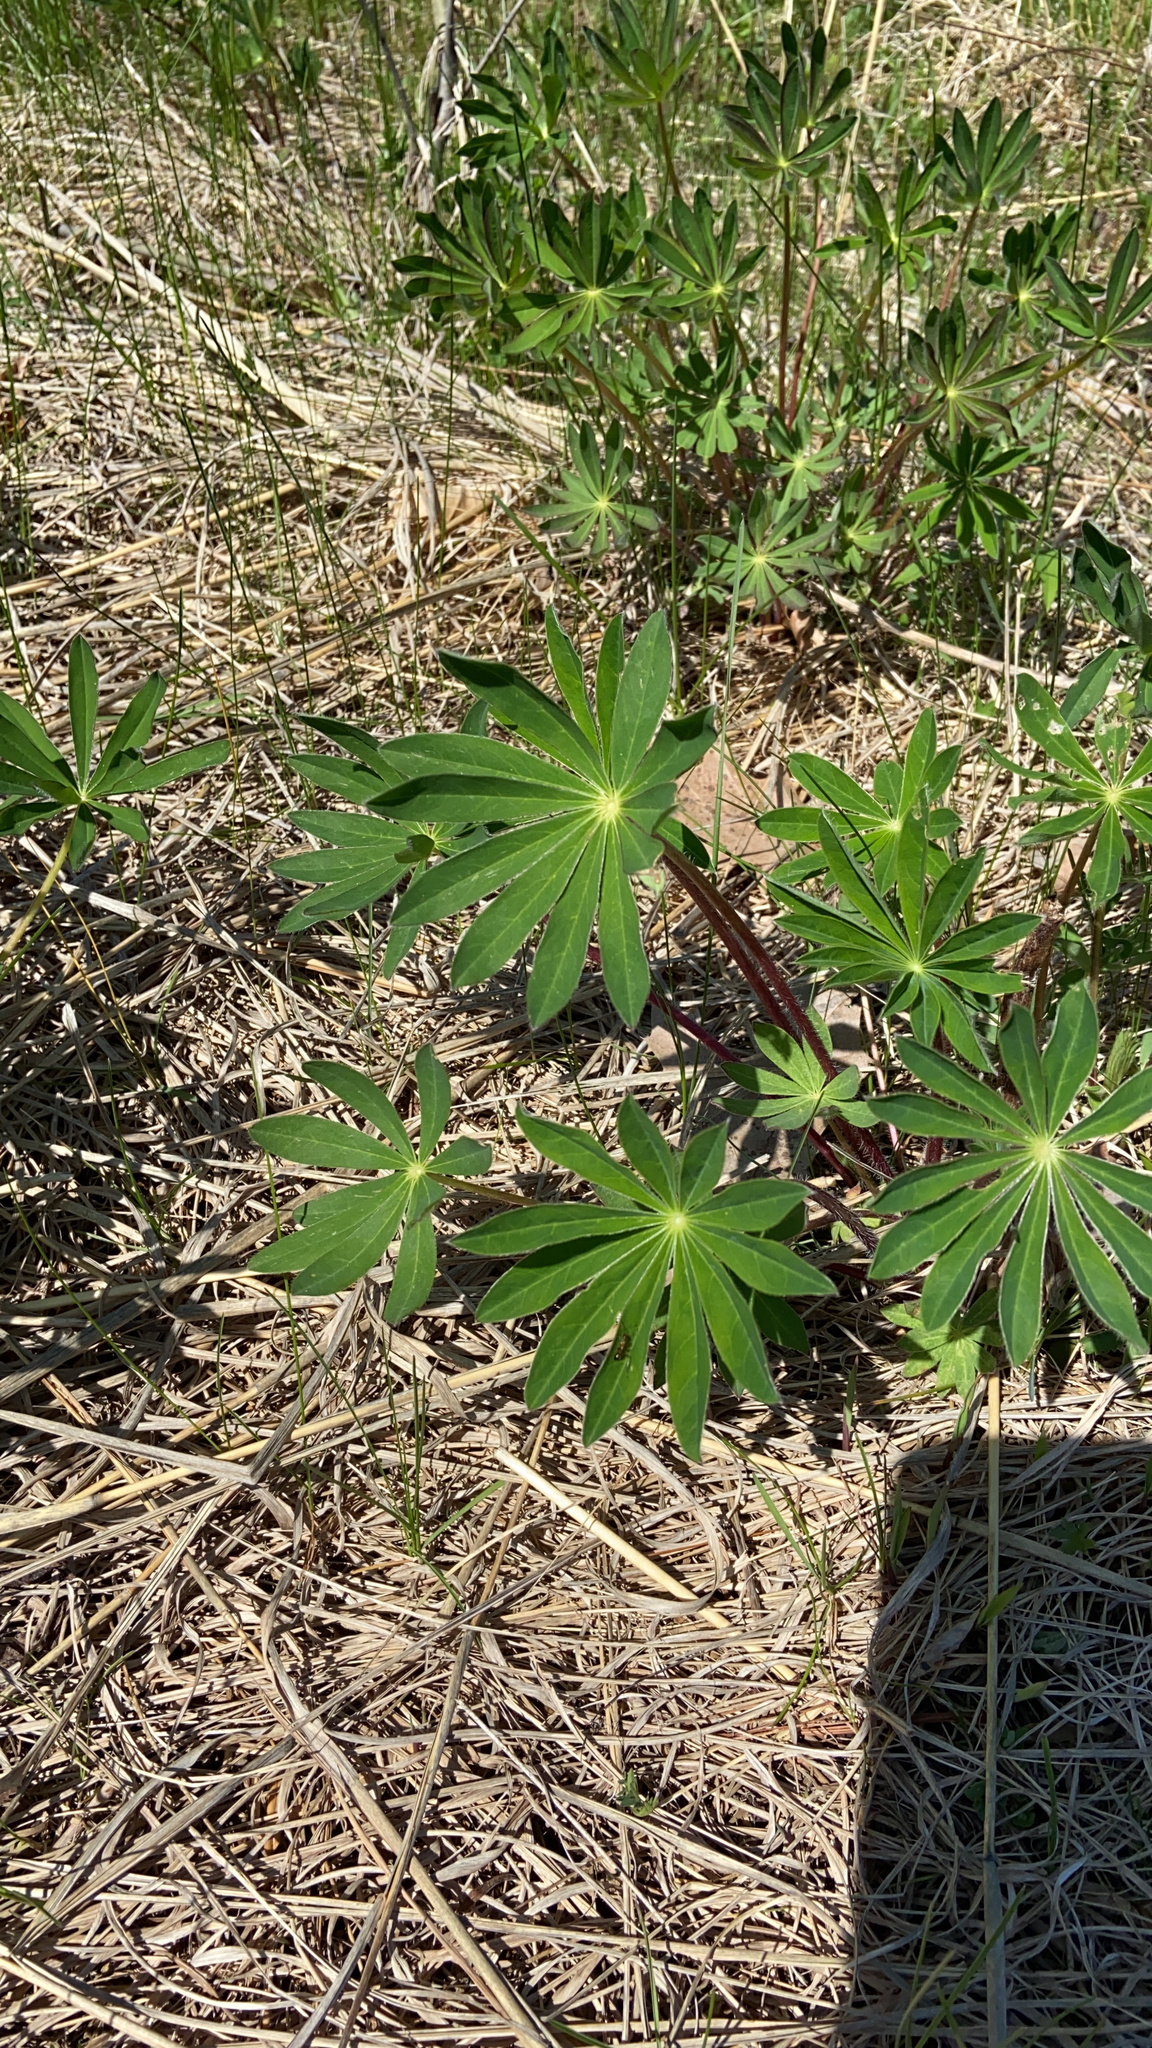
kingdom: Plantae
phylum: Tracheophyta
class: Magnoliopsida
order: Fabales
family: Fabaceae
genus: Lupinus
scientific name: Lupinus polyphyllus
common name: Garden lupin
